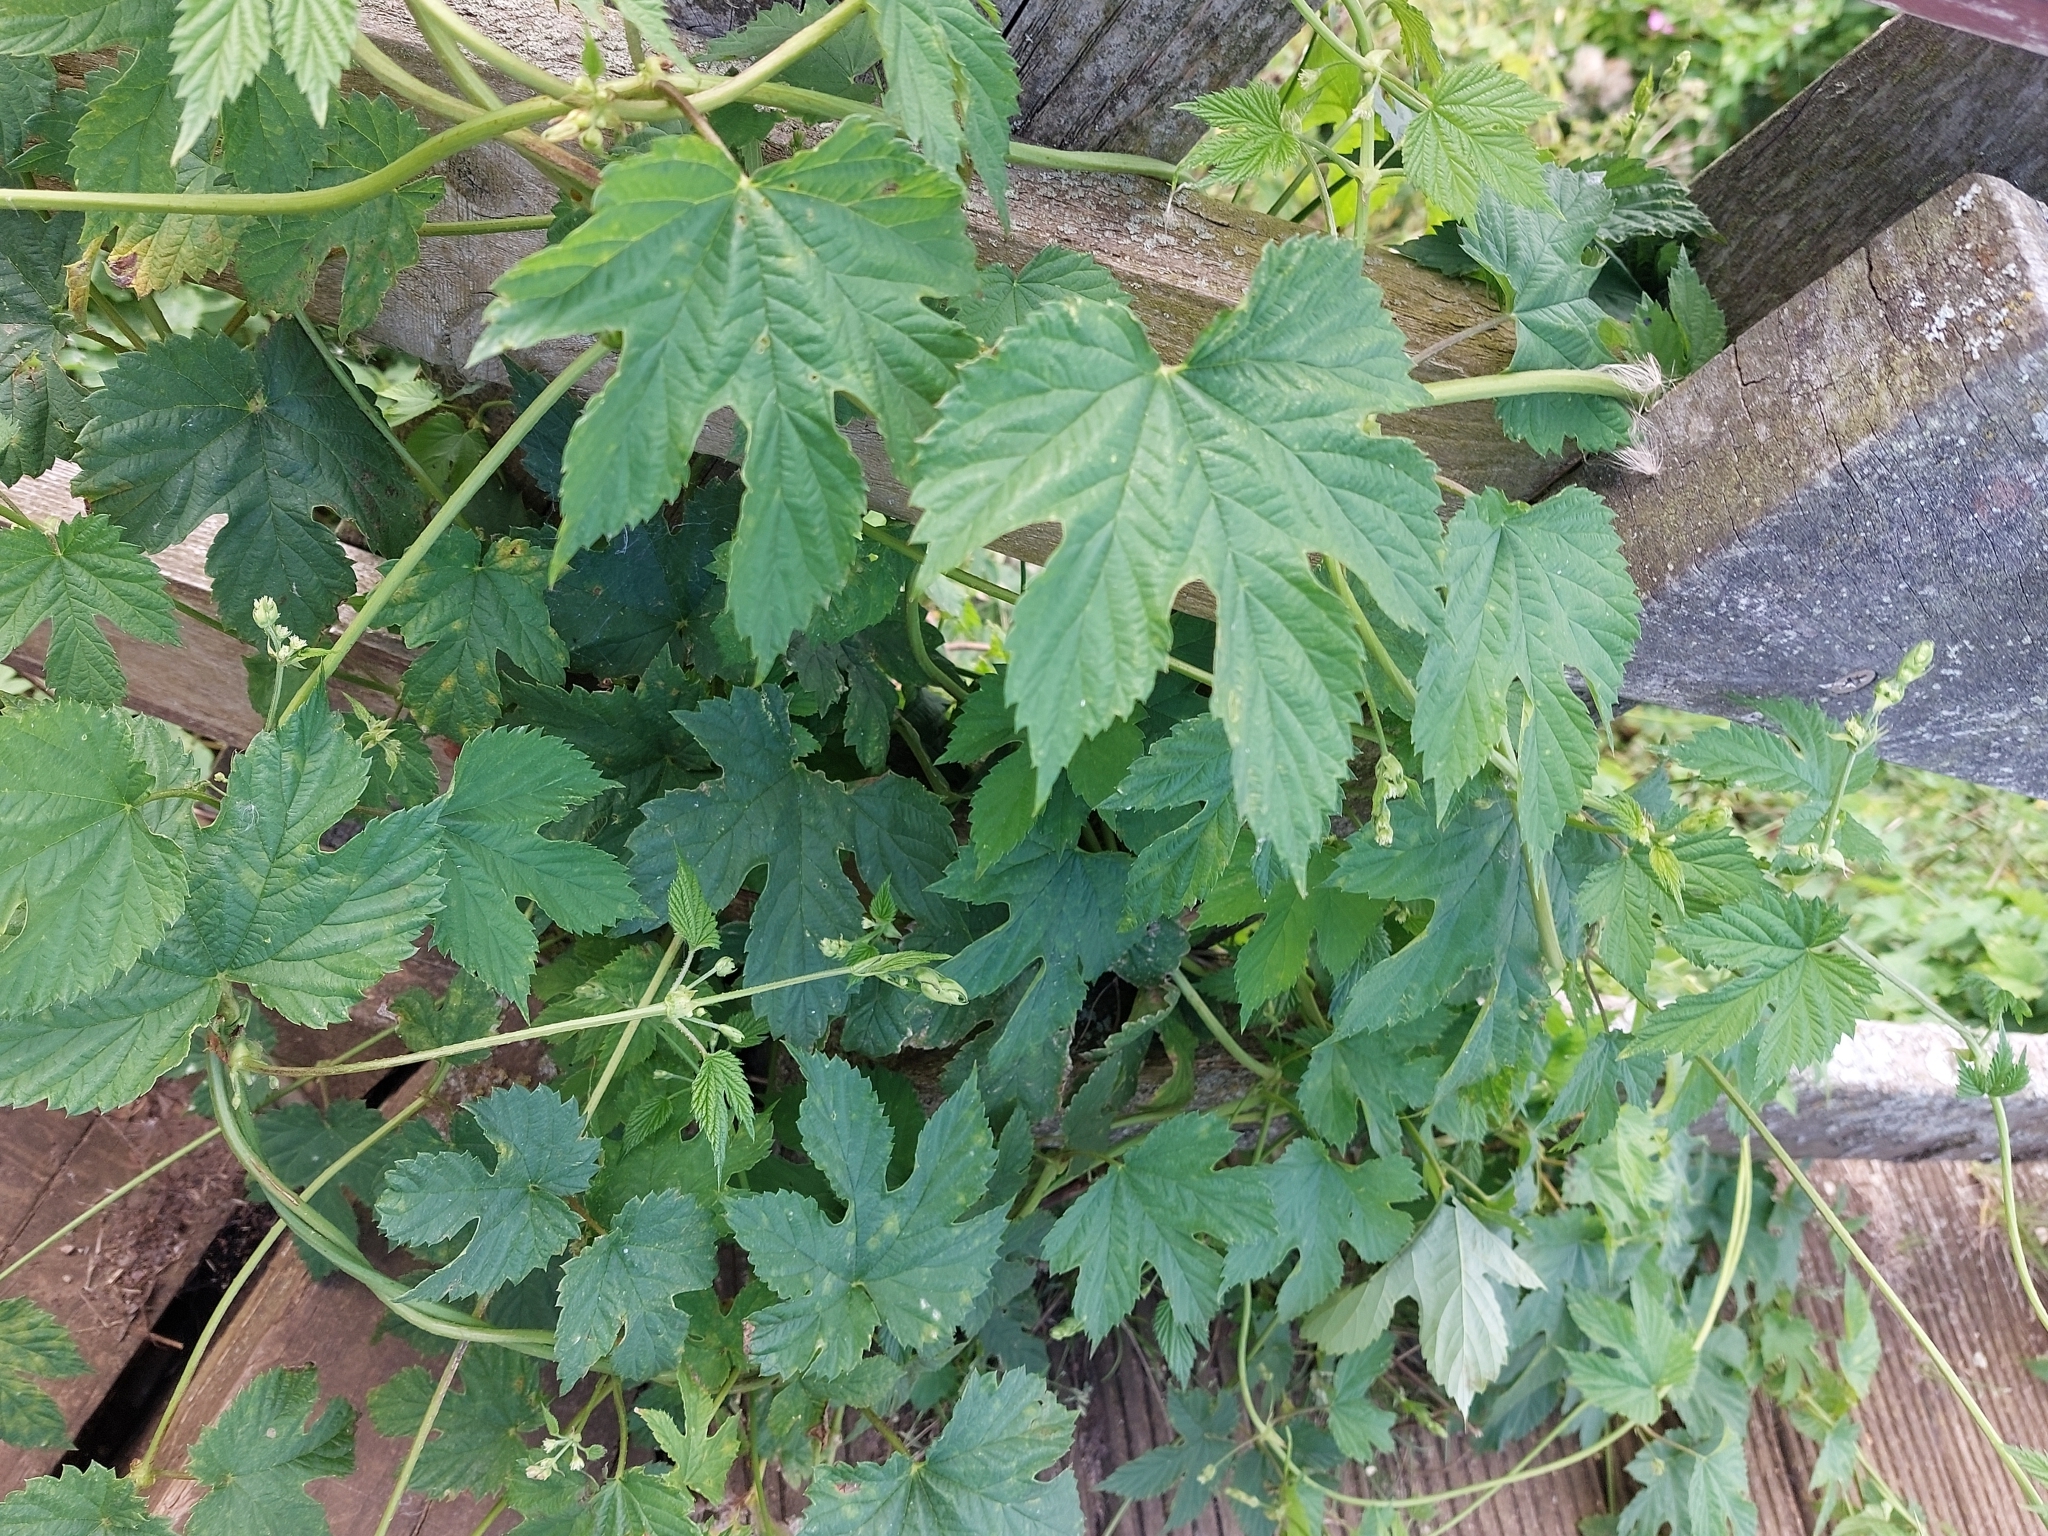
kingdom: Plantae
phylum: Tracheophyta
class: Magnoliopsida
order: Rosales
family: Cannabaceae
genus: Humulus
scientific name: Humulus lupulus
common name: Hop
